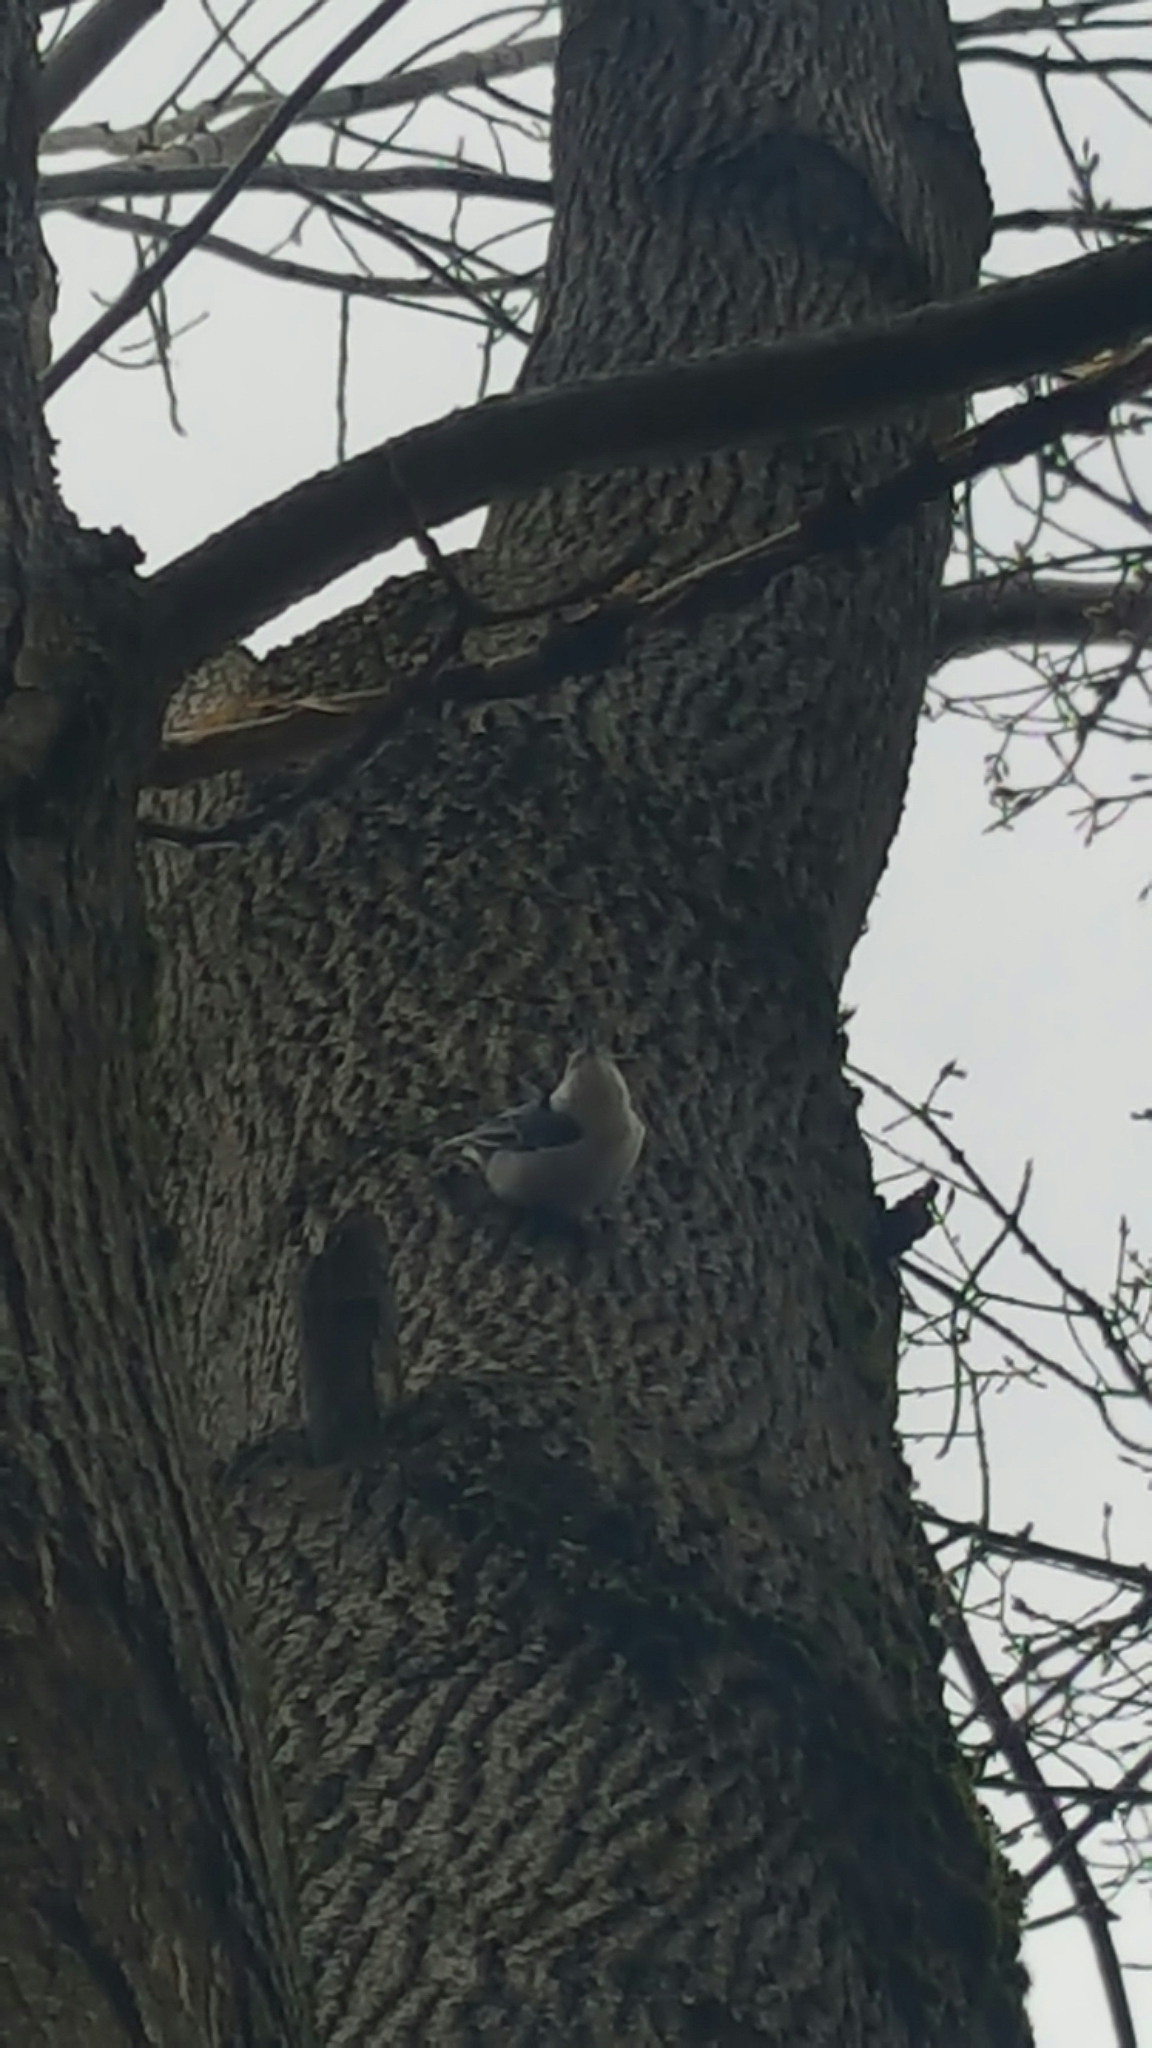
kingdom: Animalia
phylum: Chordata
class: Aves
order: Passeriformes
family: Sittidae
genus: Sitta
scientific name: Sitta carolinensis
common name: White-breasted nuthatch
